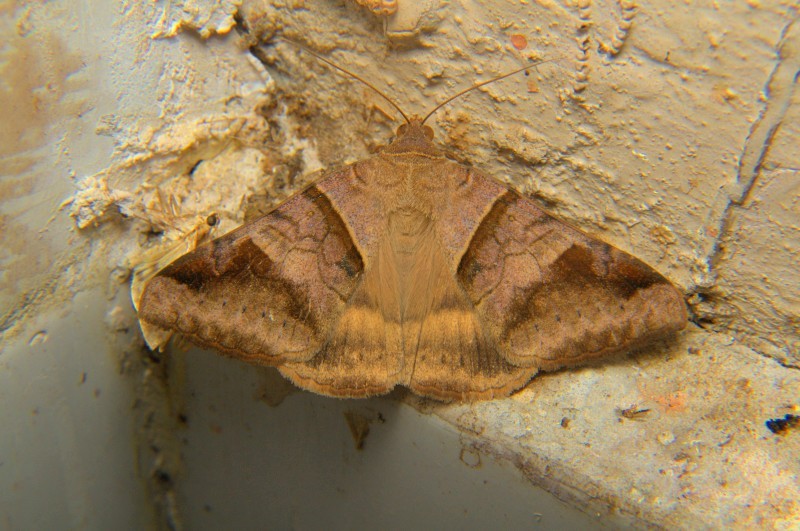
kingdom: Animalia
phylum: Arthropoda
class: Insecta
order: Lepidoptera
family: Erebidae
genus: Mocis
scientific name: Mocis undata
